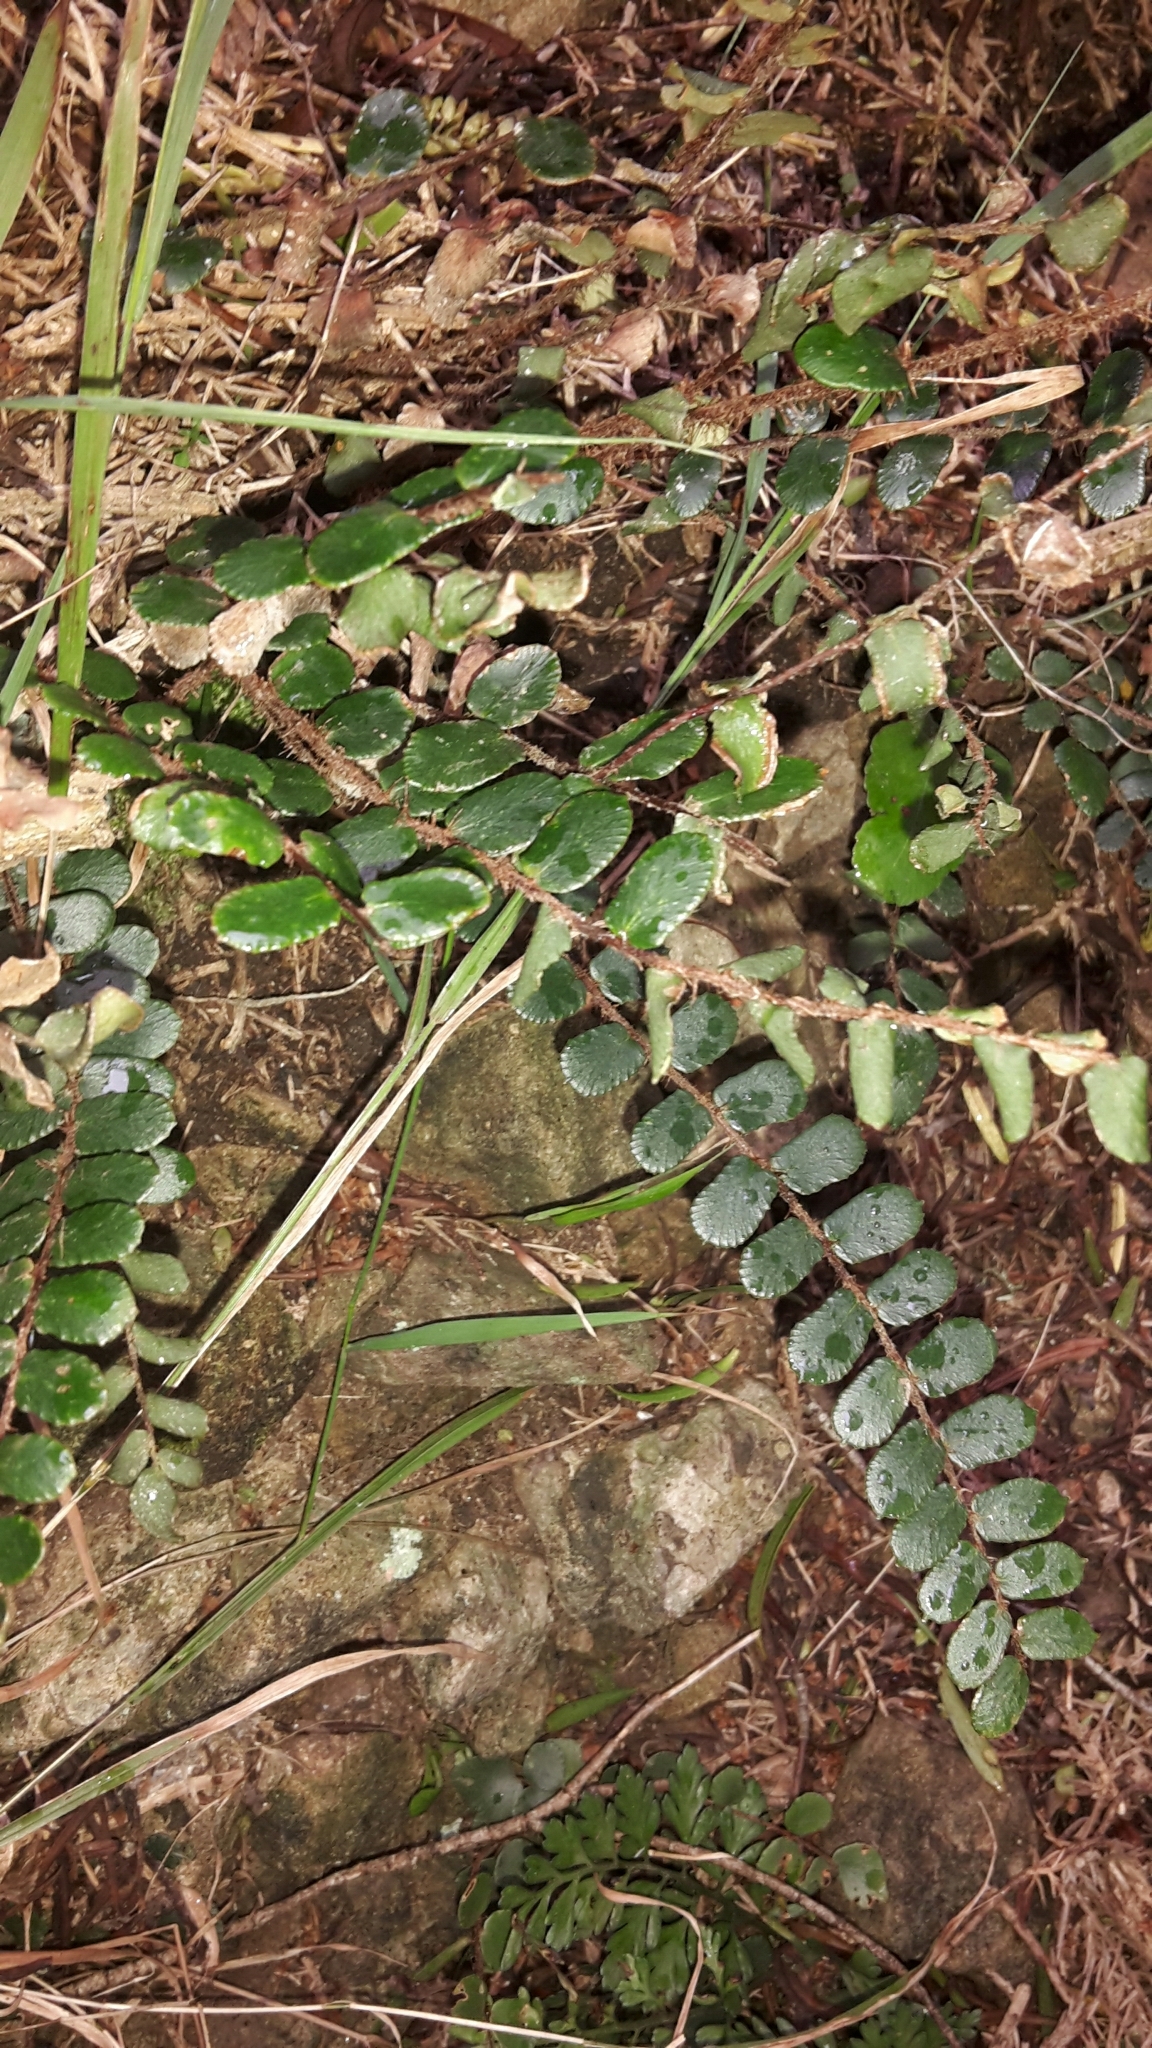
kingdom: Plantae
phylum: Tracheophyta
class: Polypodiopsida
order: Polypodiales
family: Pteridaceae
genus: Pellaea
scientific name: Pellaea rotundifolia
